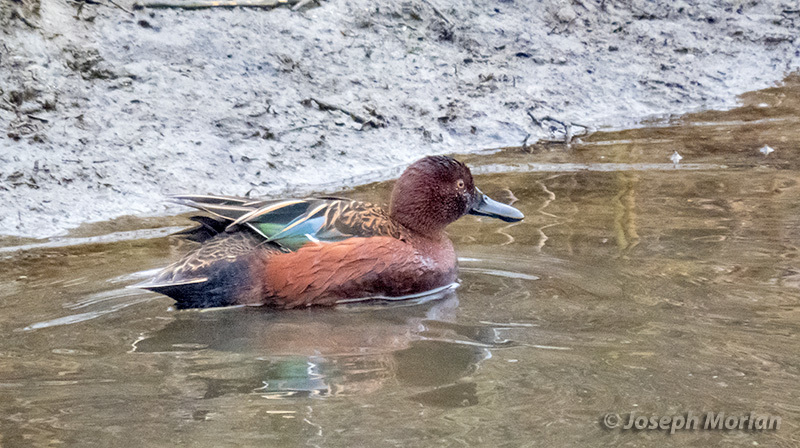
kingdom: Animalia
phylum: Chordata
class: Aves
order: Anseriformes
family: Anatidae
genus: Spatula
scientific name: Spatula cyanoptera
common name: Cinnamon teal
